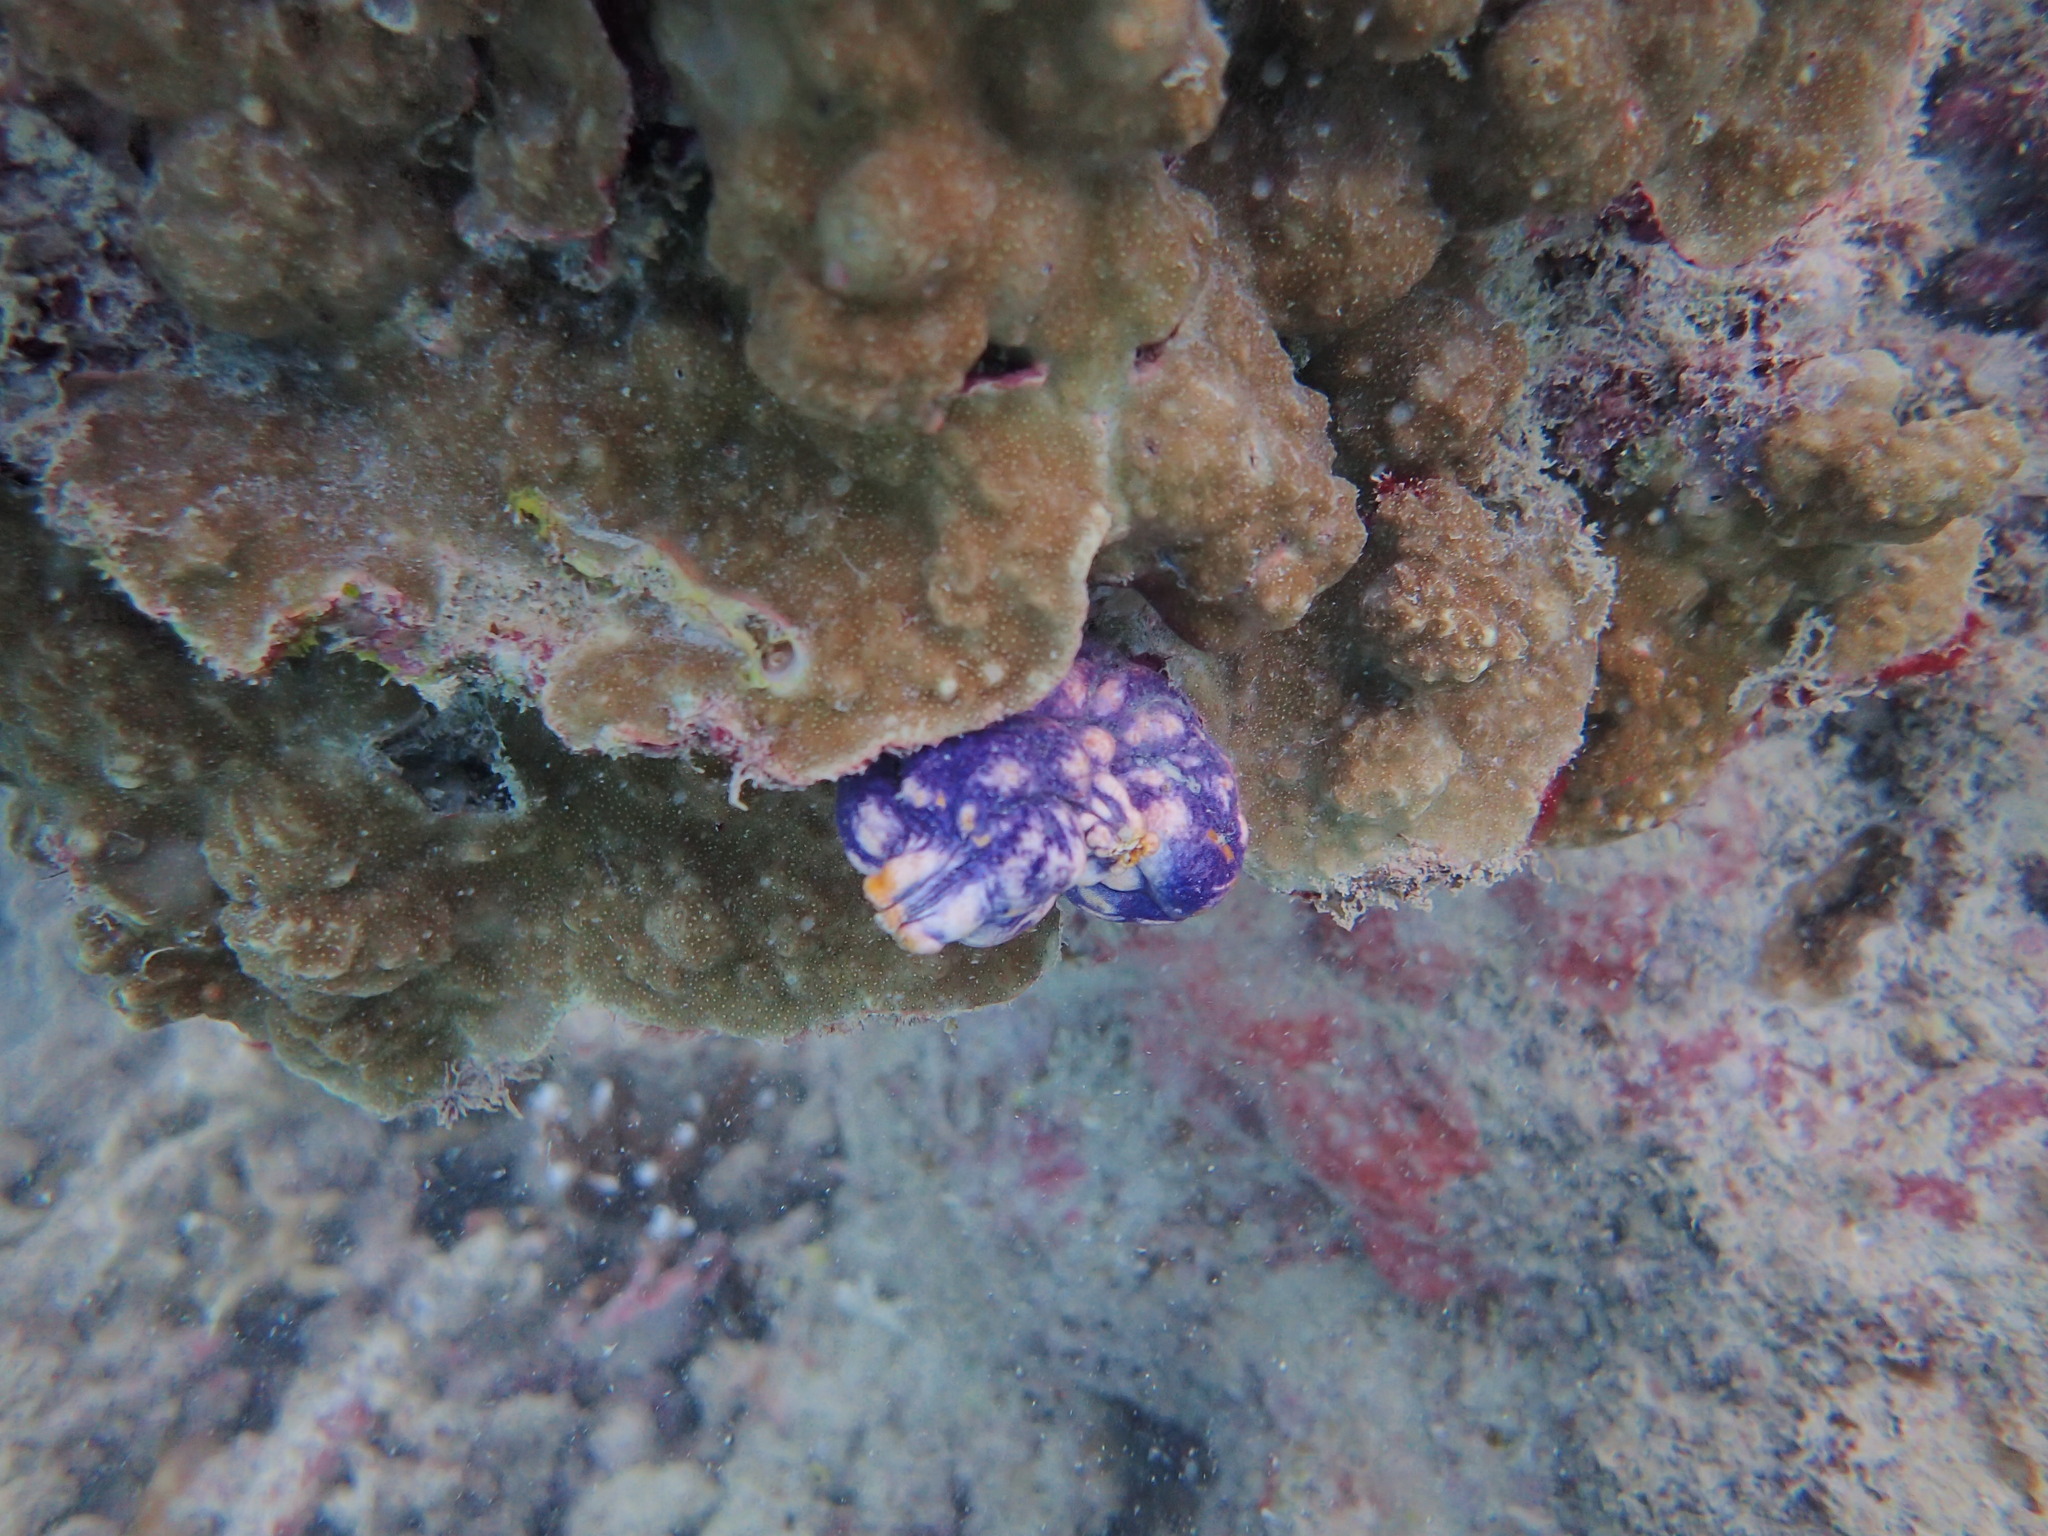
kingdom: Animalia
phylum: Chordata
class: Ascidiacea
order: Stolidobranchia
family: Styelidae
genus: Polycarpa
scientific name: Polycarpa aurata
